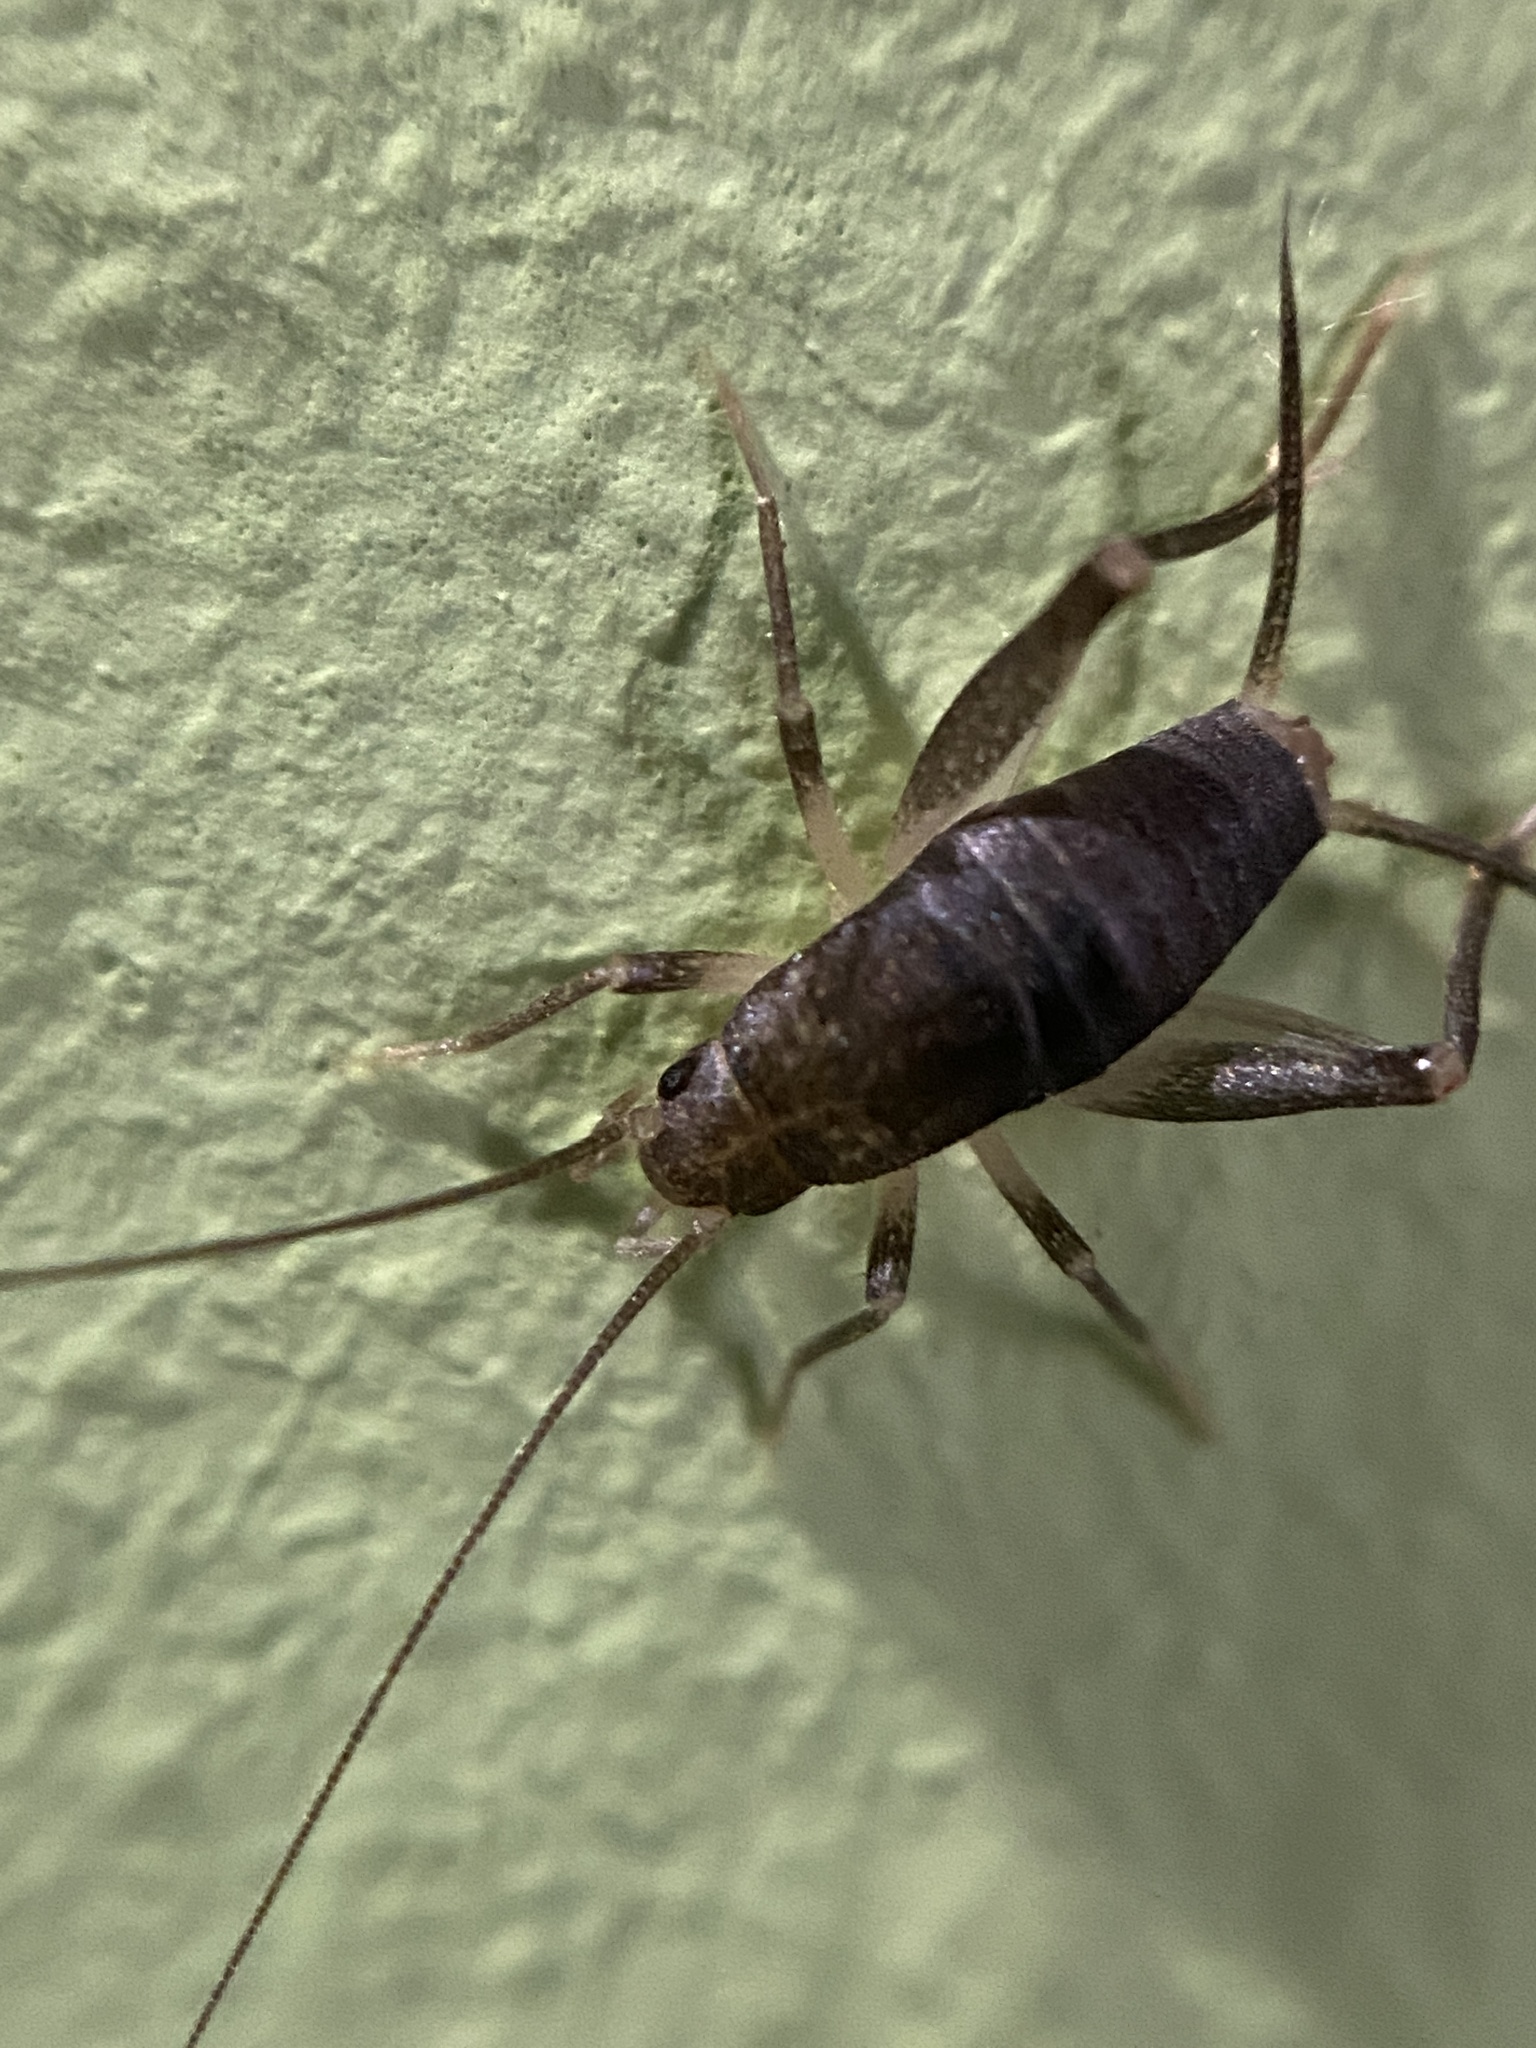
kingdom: Animalia
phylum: Arthropoda
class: Insecta
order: Orthoptera
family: Mogoplistidae
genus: Cycloptiloides
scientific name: Cycloptiloides canariensis
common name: Canarian tiny cricket
